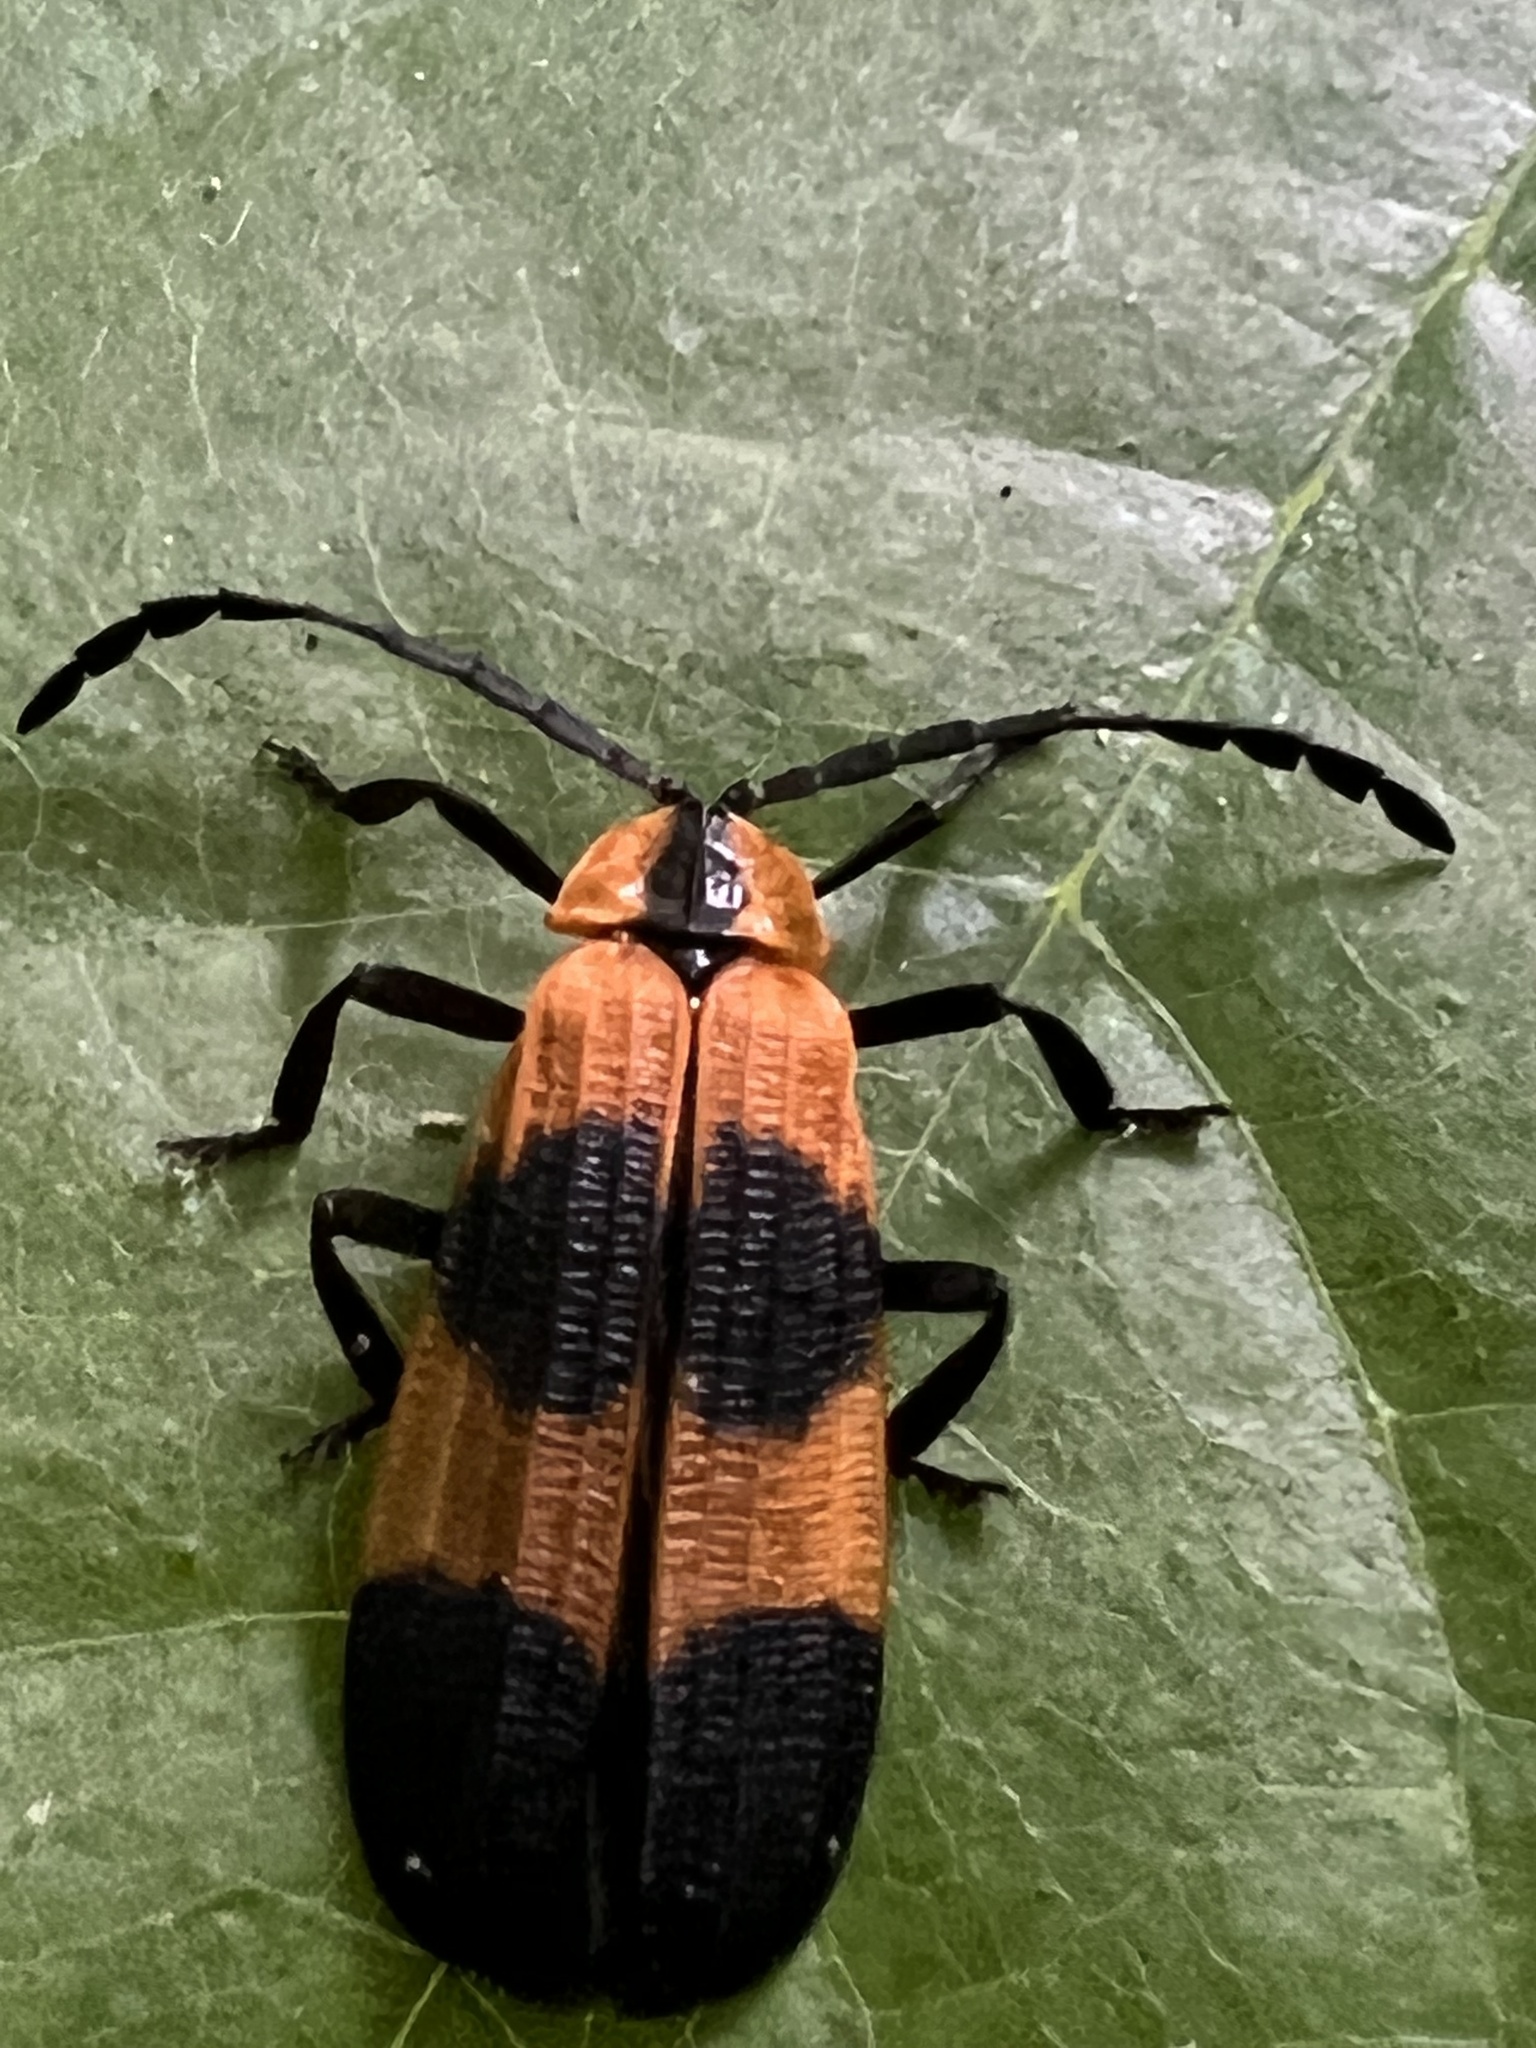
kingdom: Animalia
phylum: Arthropoda
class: Insecta
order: Coleoptera
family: Lycidae
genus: Calopteron
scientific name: Calopteron reticulatum
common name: Banded net-winged beetle
